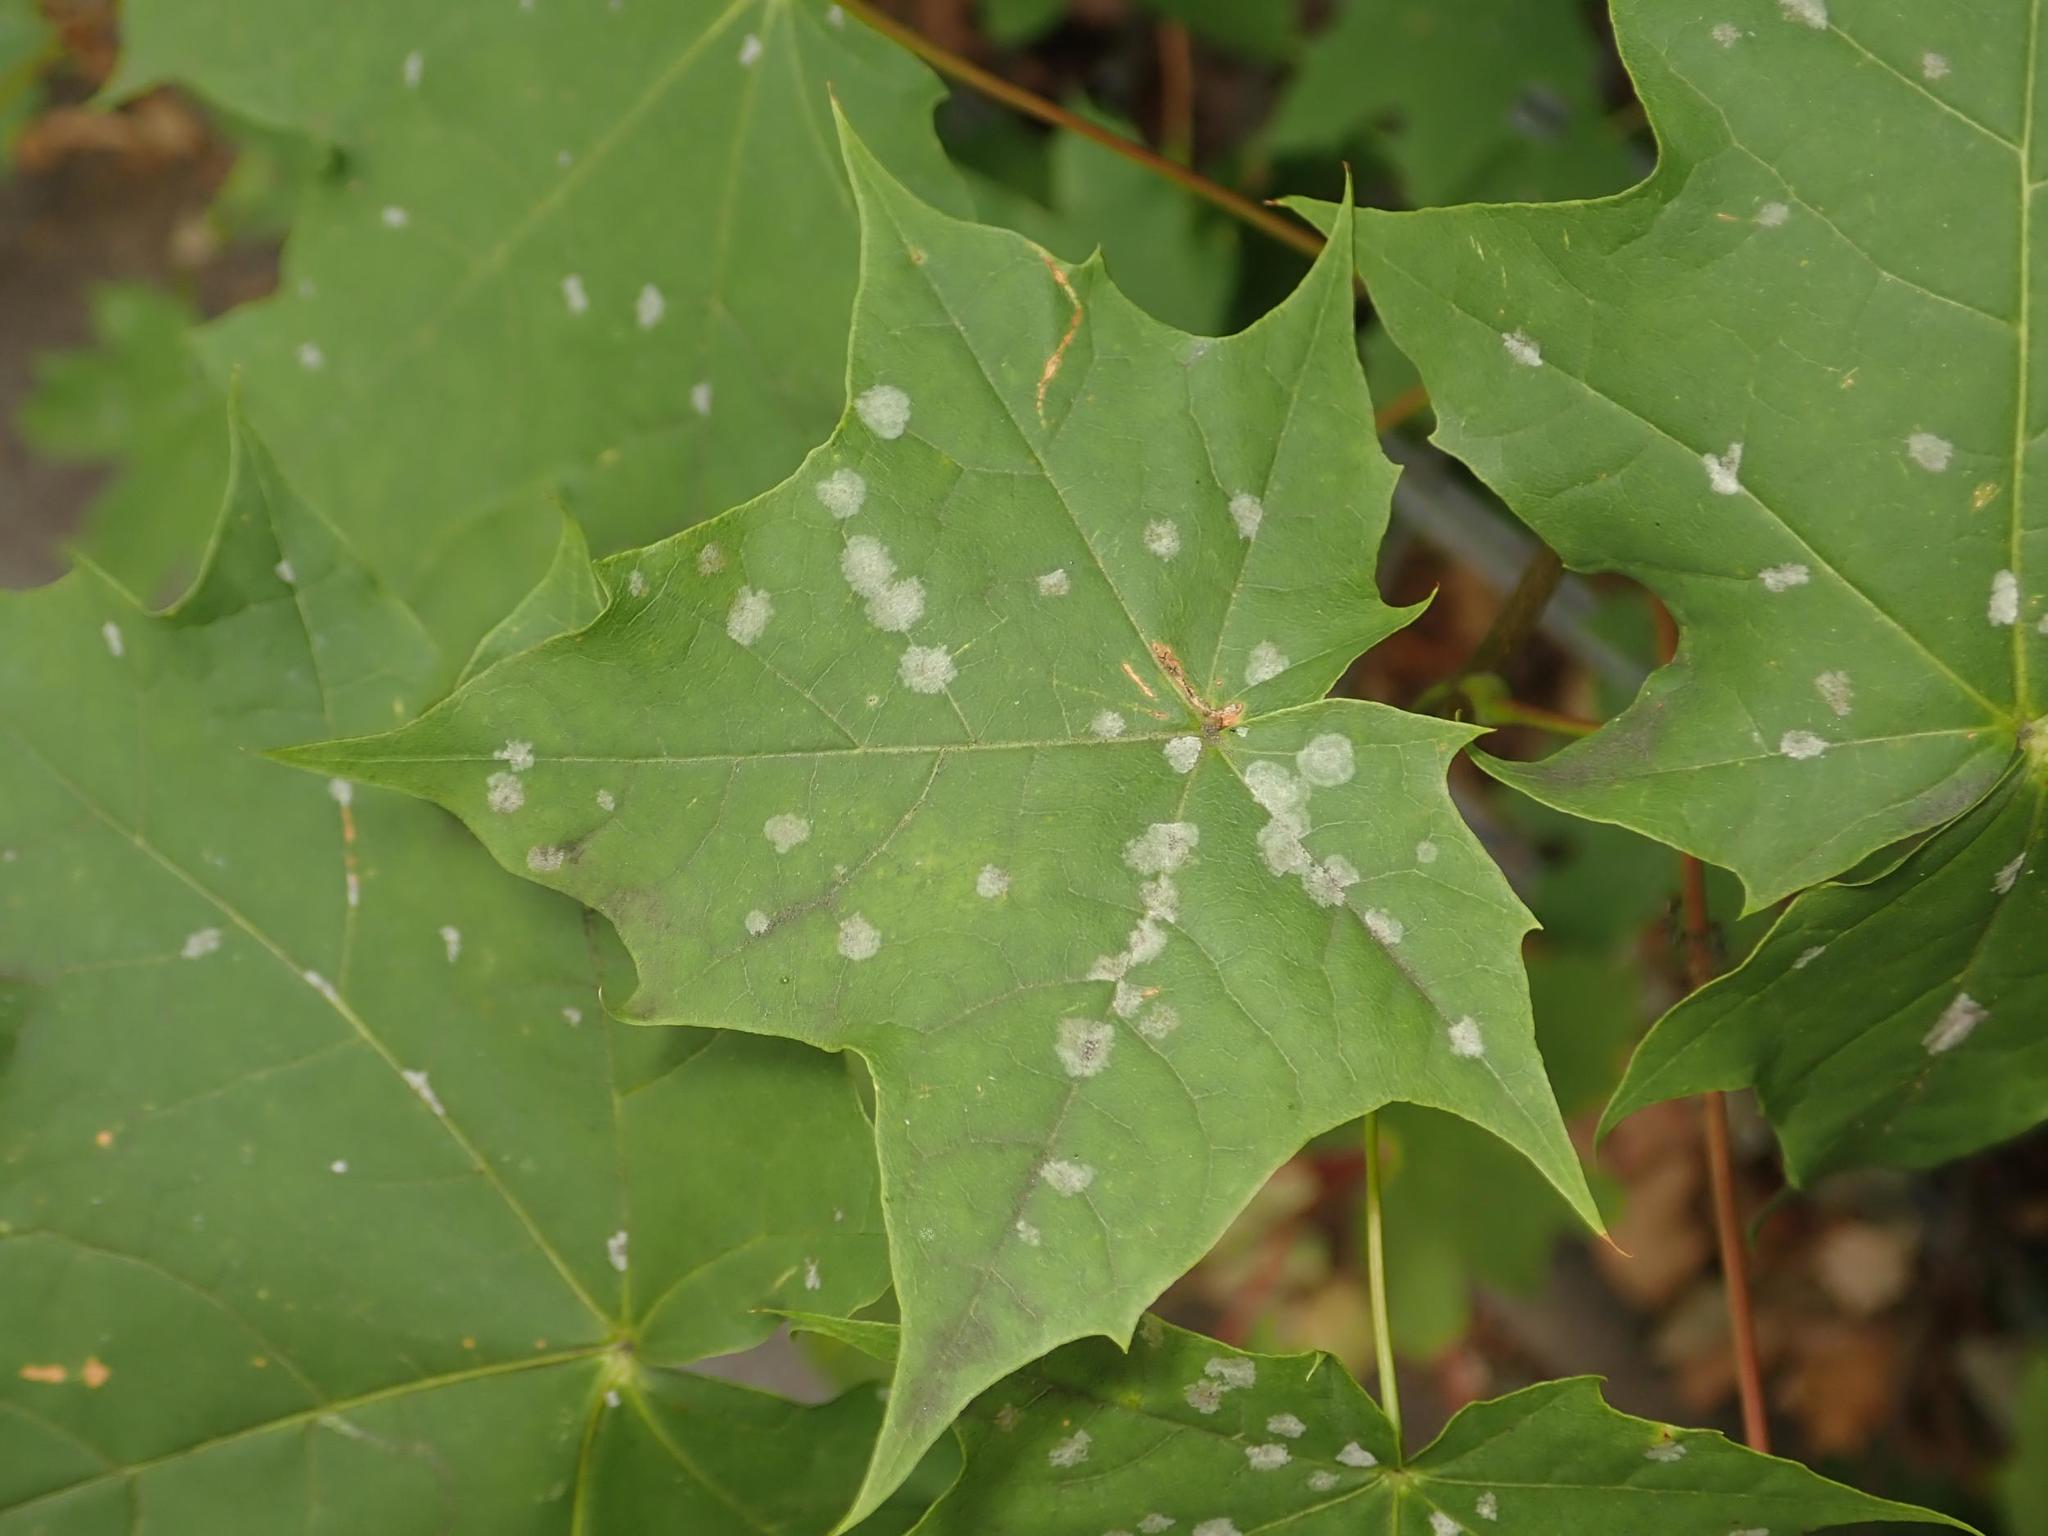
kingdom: Plantae
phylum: Tracheophyta
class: Magnoliopsida
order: Sapindales
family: Sapindaceae
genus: Acer
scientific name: Acer platanoides
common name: Norway maple
